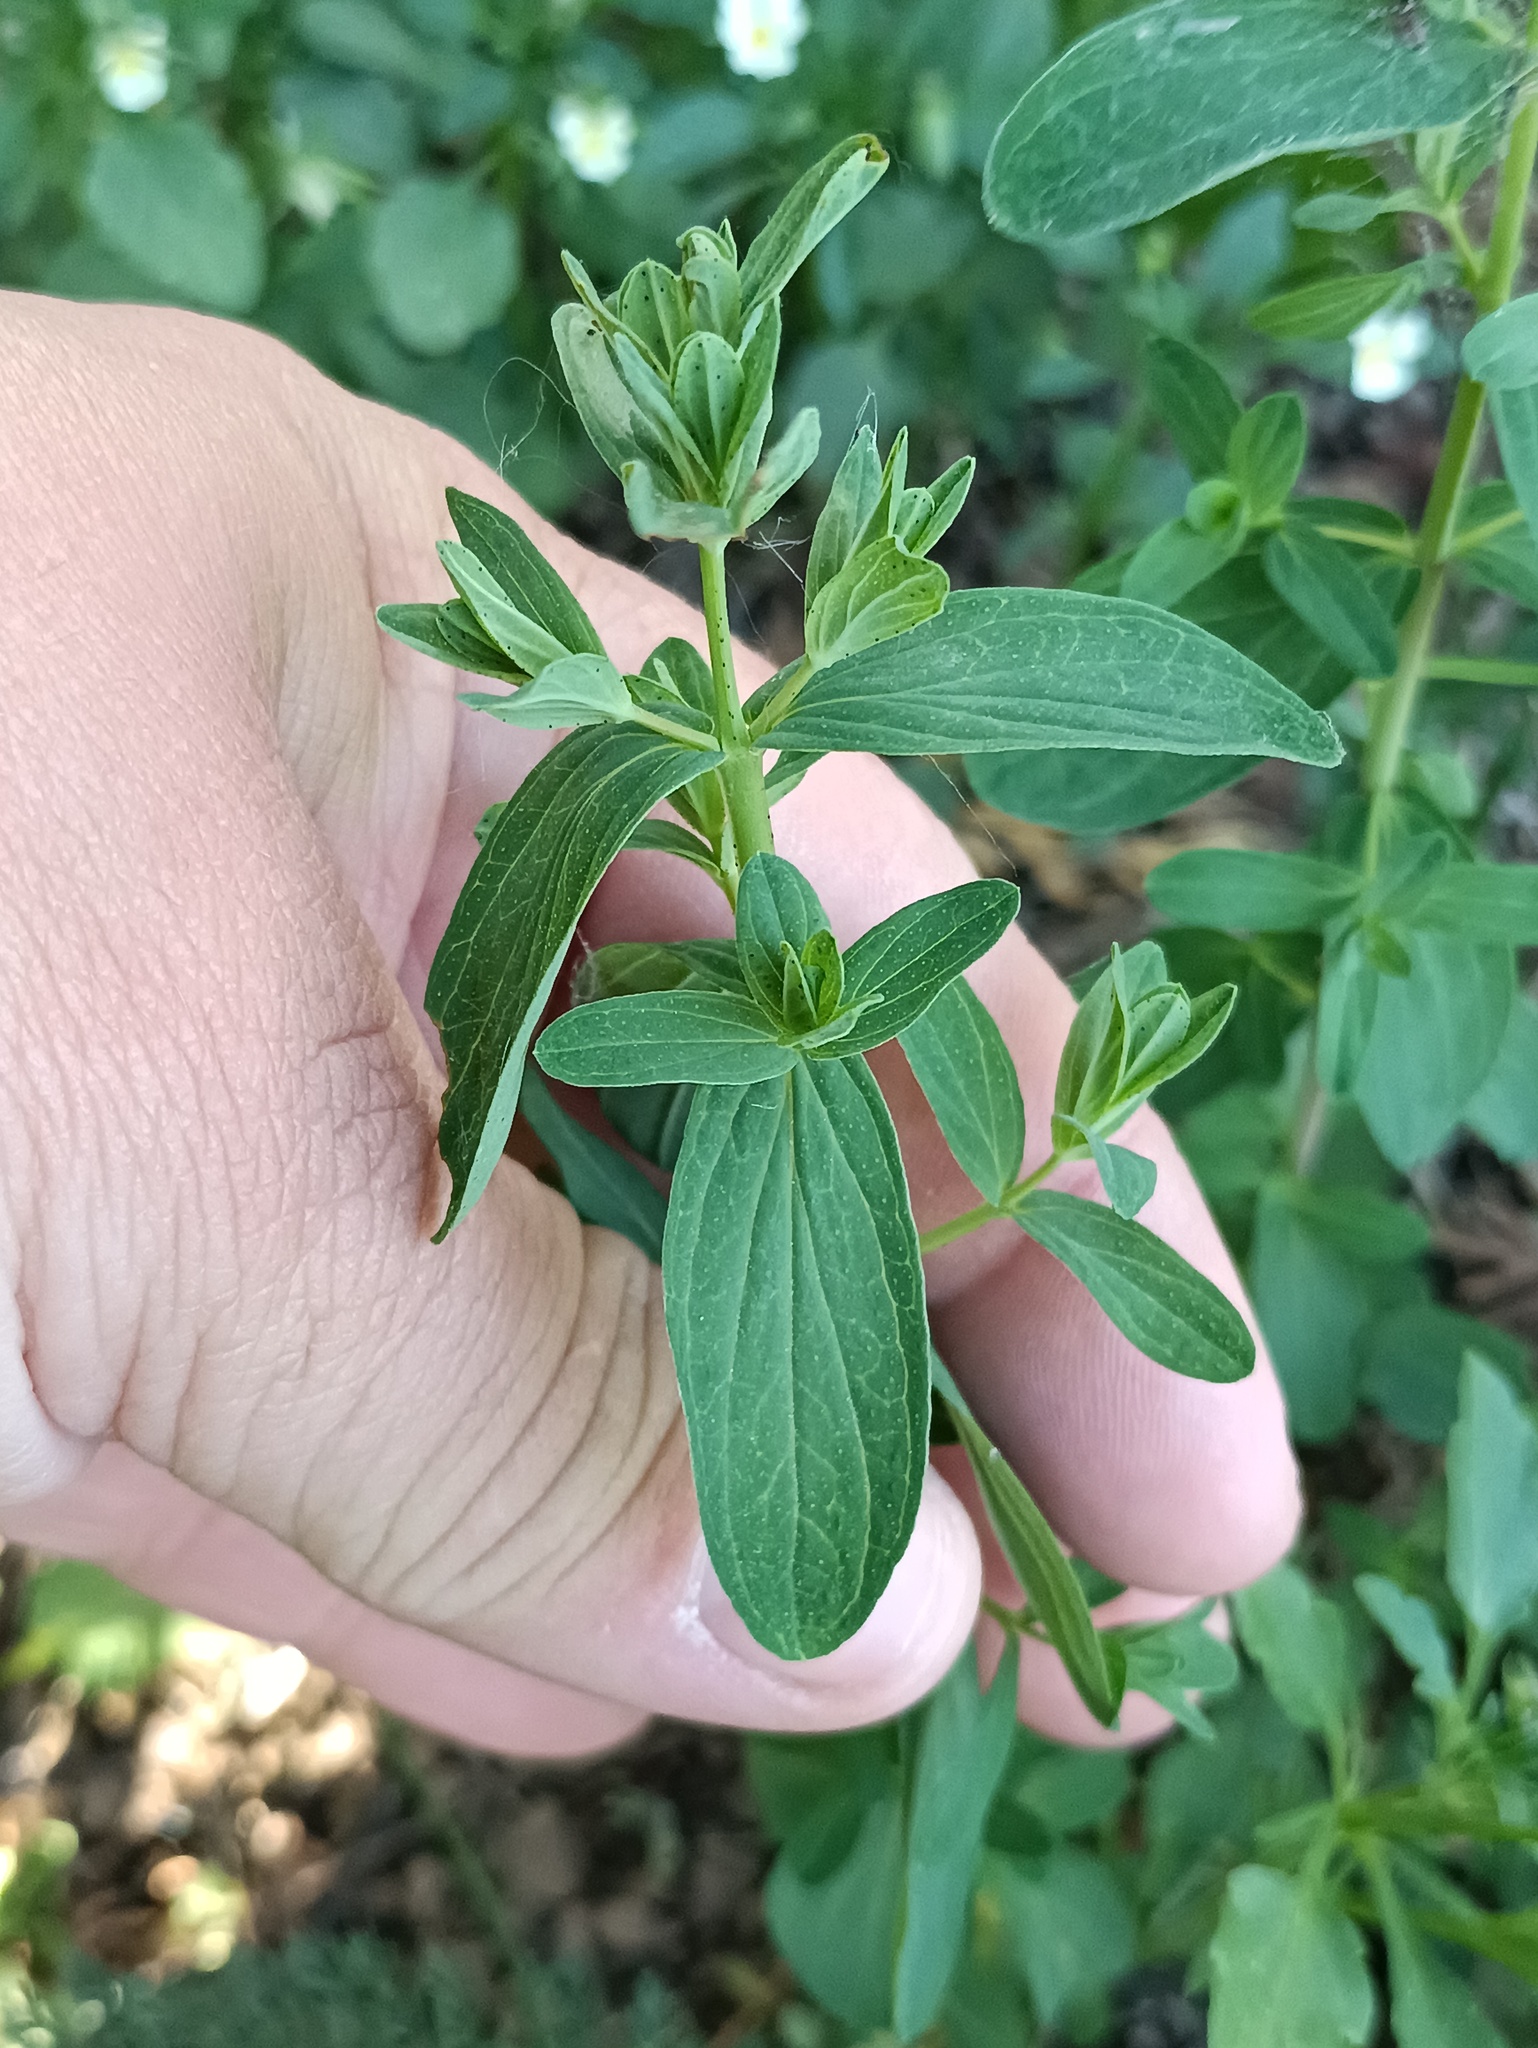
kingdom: Plantae
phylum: Tracheophyta
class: Magnoliopsida
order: Malpighiales
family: Hypericaceae
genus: Hypericum
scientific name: Hypericum perforatum
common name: Common st. johnswort
